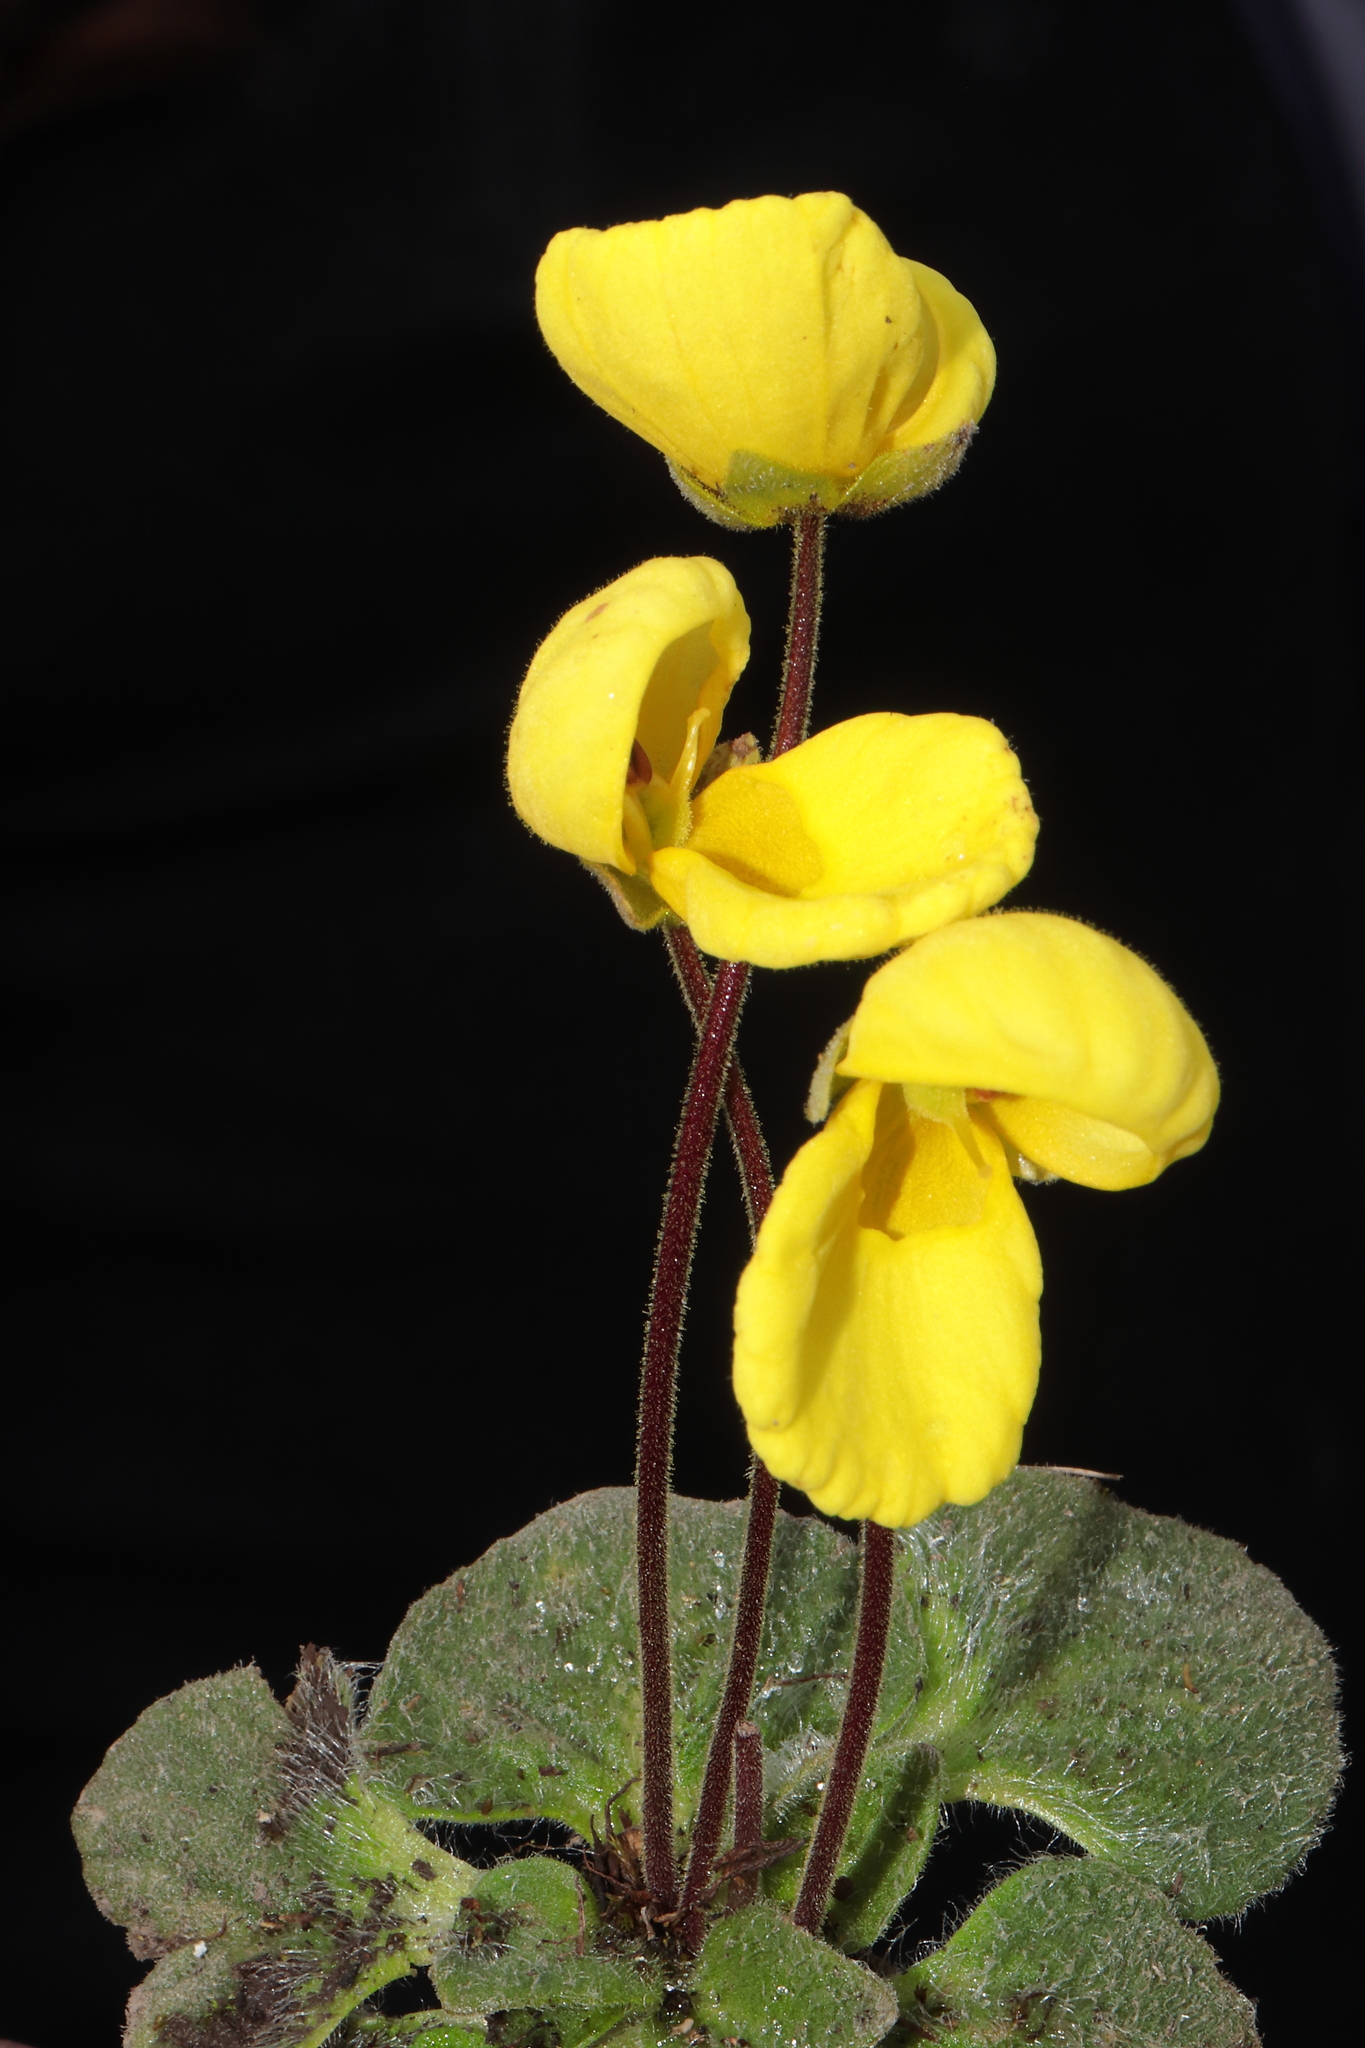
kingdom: Plantae
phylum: Tracheophyta
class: Magnoliopsida
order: Lamiales
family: Calceolariaceae
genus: Calceolaria
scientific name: Calceolaria scapiflora
